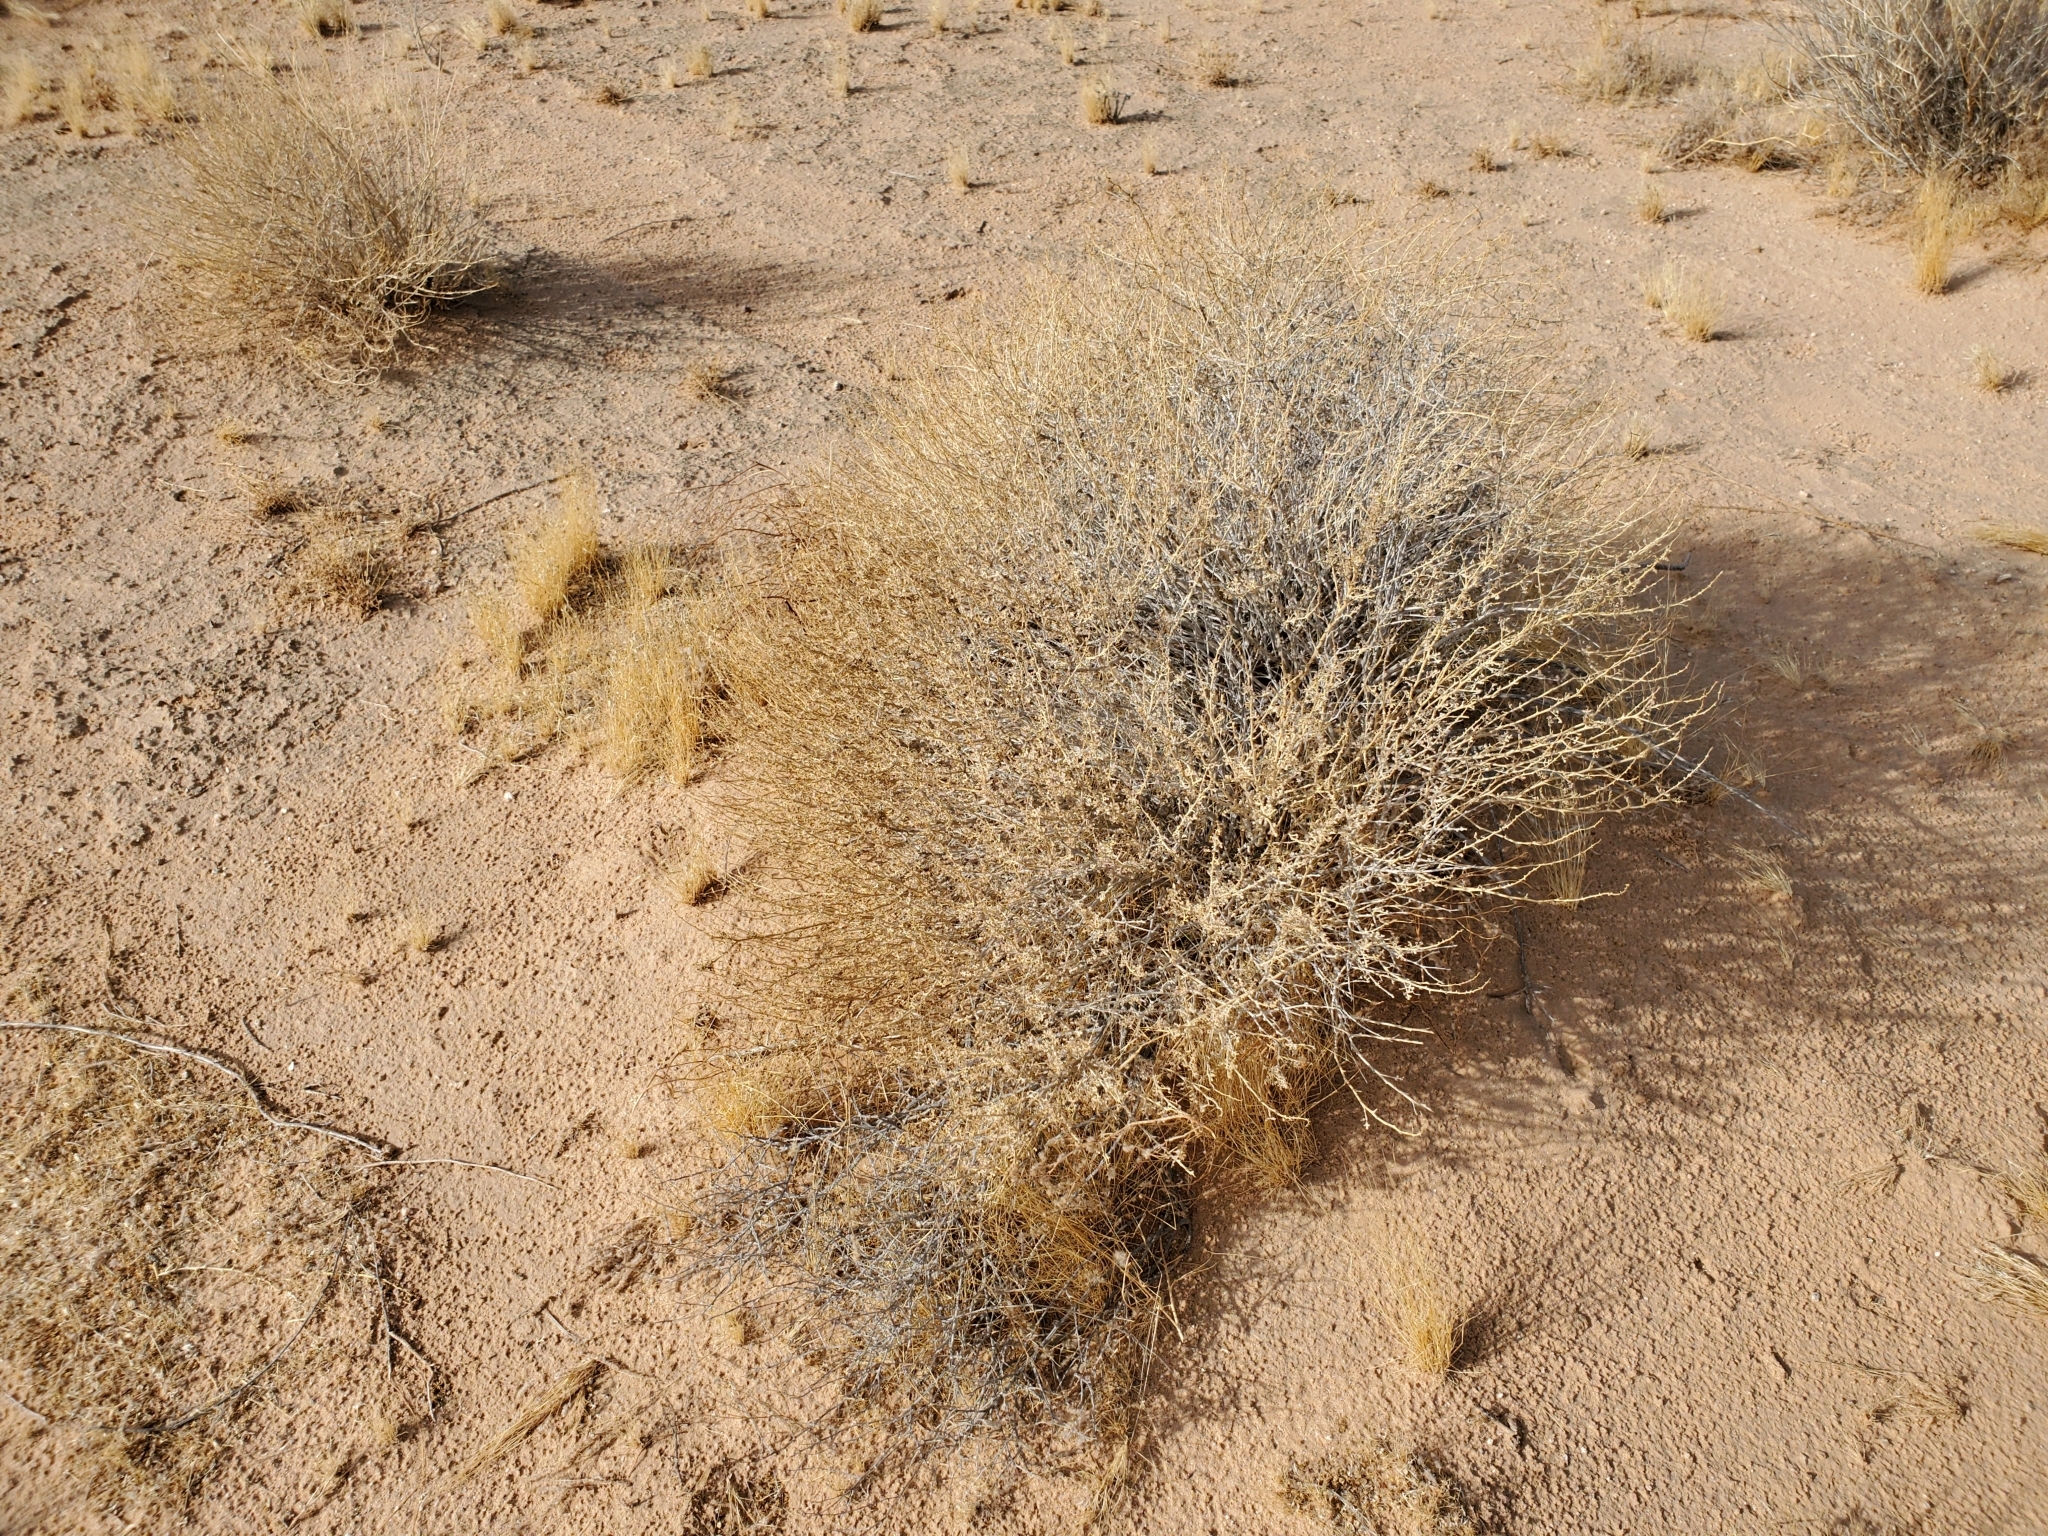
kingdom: Plantae
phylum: Tracheophyta
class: Magnoliopsida
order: Asterales
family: Asteraceae
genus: Ambrosia
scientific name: Ambrosia dumosa
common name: Bur-sage
